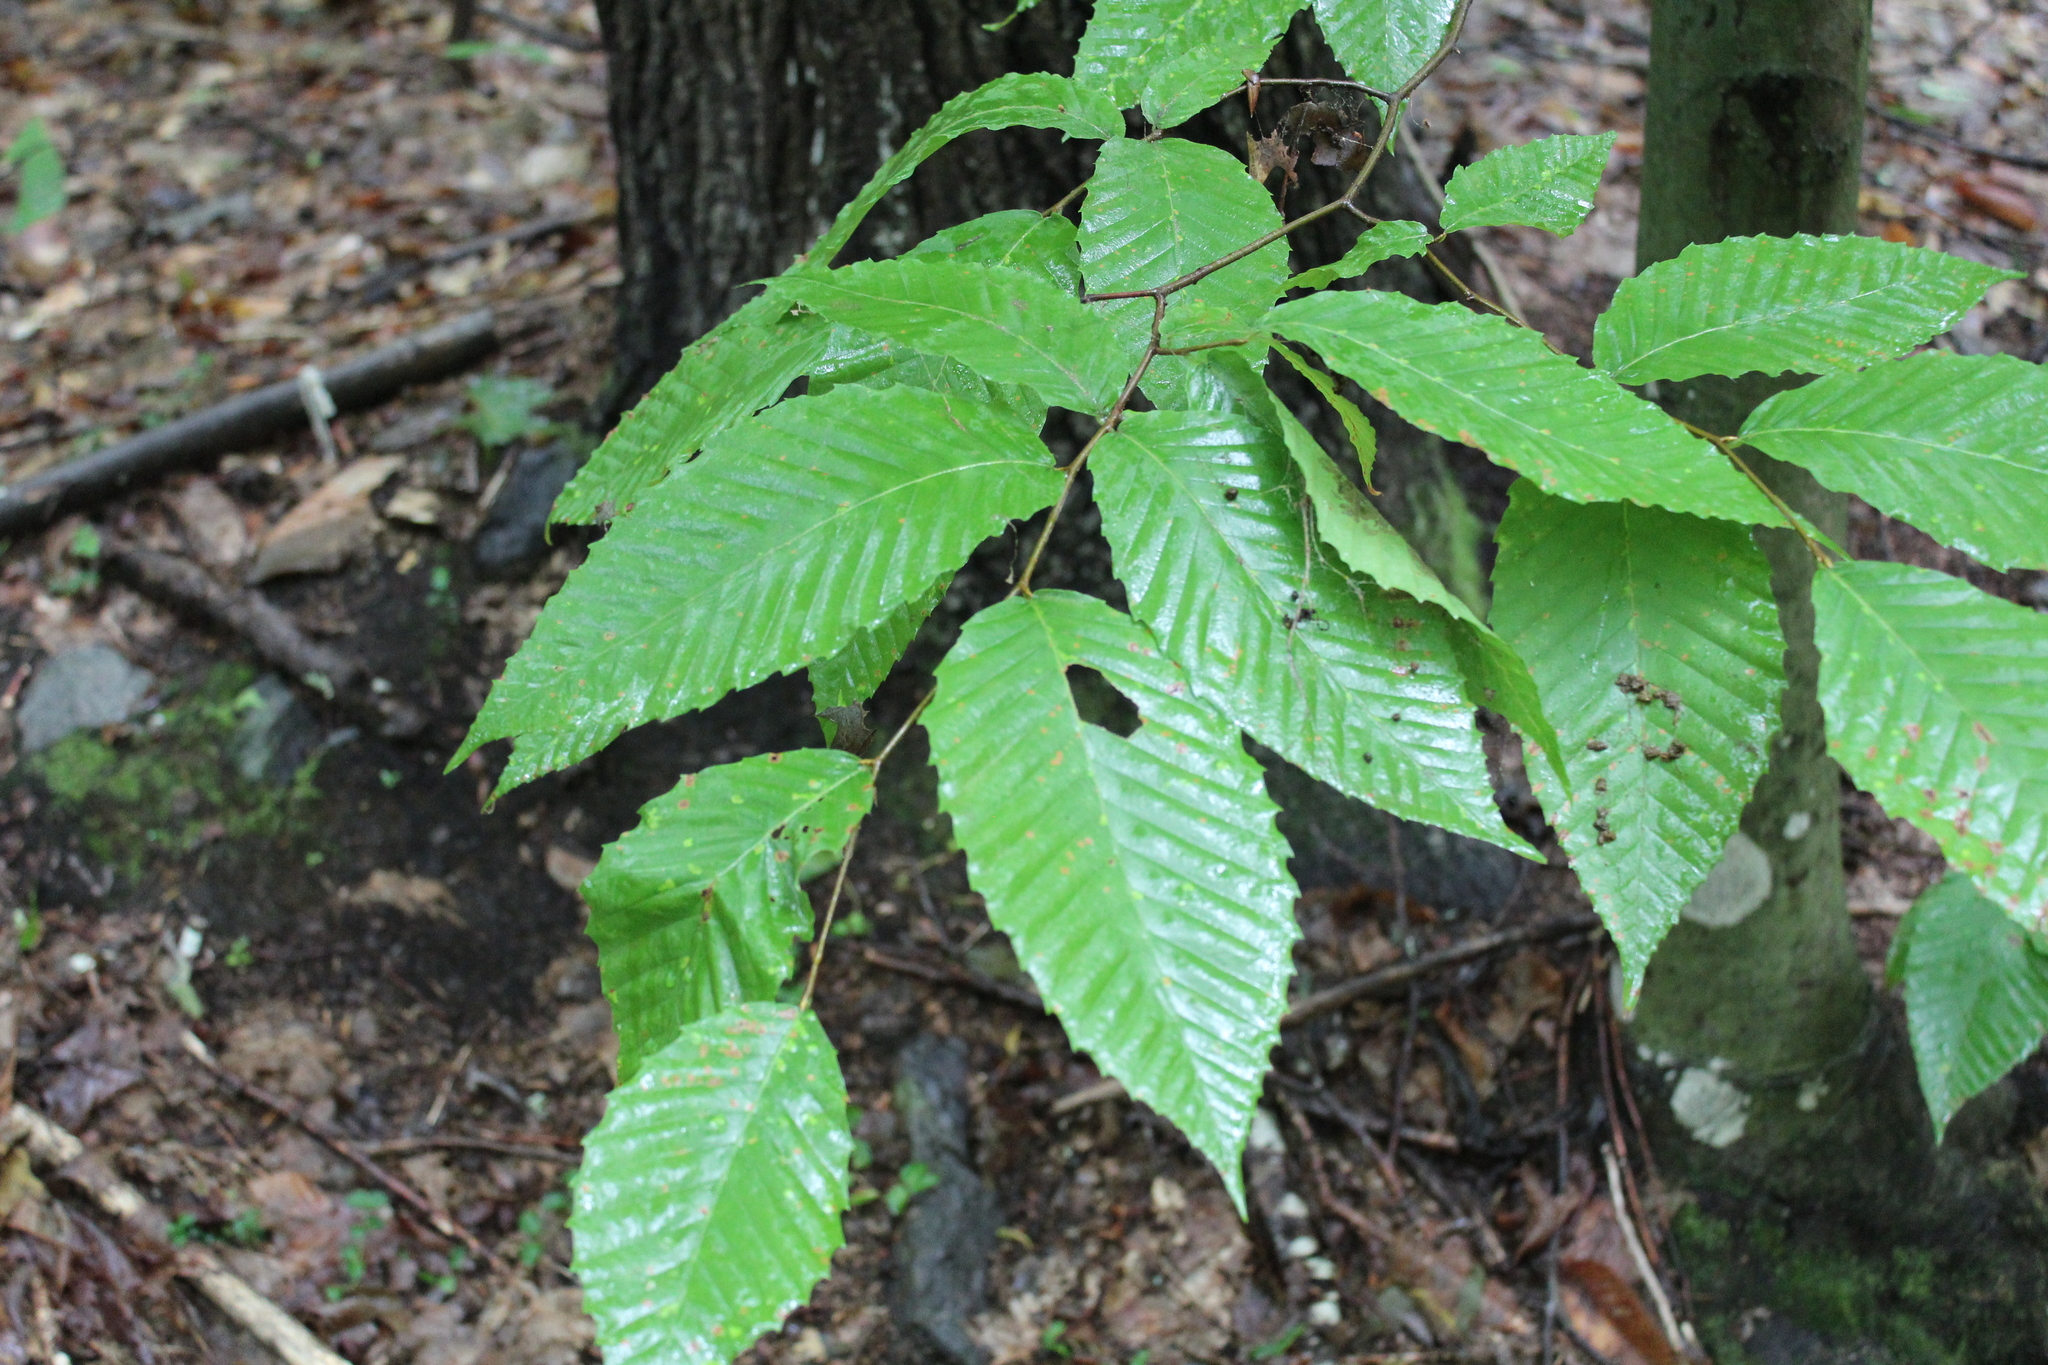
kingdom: Plantae
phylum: Tracheophyta
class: Magnoliopsida
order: Fagales
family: Fagaceae
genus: Fagus
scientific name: Fagus grandifolia
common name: American beech
